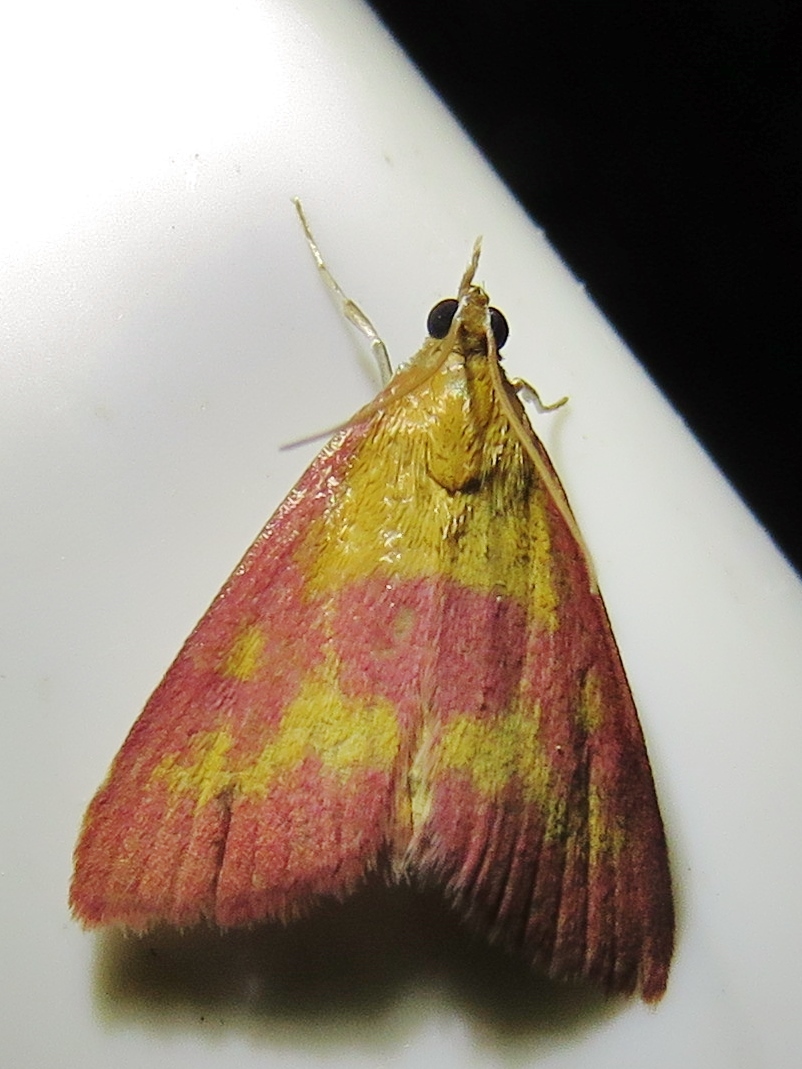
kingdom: Animalia
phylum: Arthropoda
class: Insecta
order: Lepidoptera
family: Crambidae
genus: Pyrausta
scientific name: Pyrausta laticlavia
